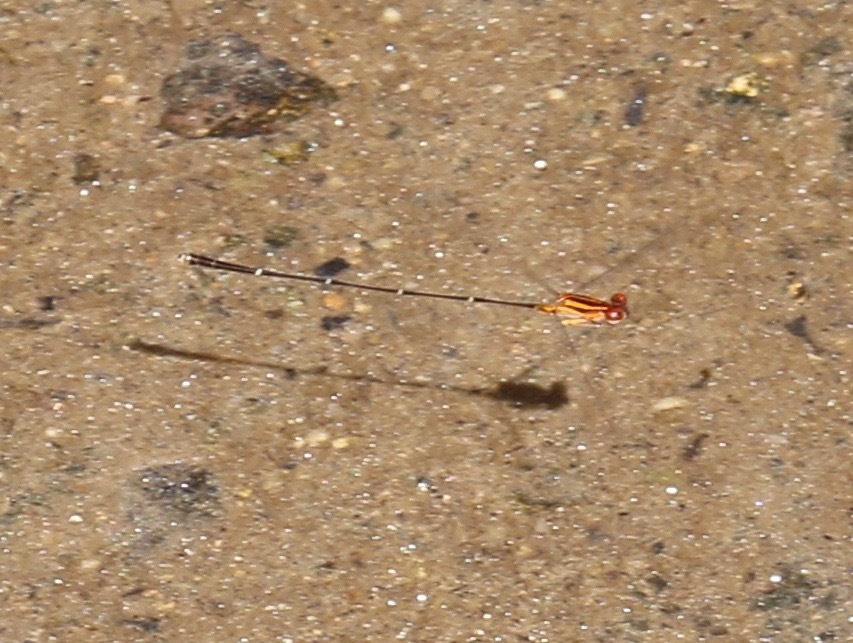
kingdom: Animalia
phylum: Arthropoda
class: Insecta
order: Odonata
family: Coenagrionidae
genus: Protoneura
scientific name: Protoneura cara
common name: Orange-striped threadtail
